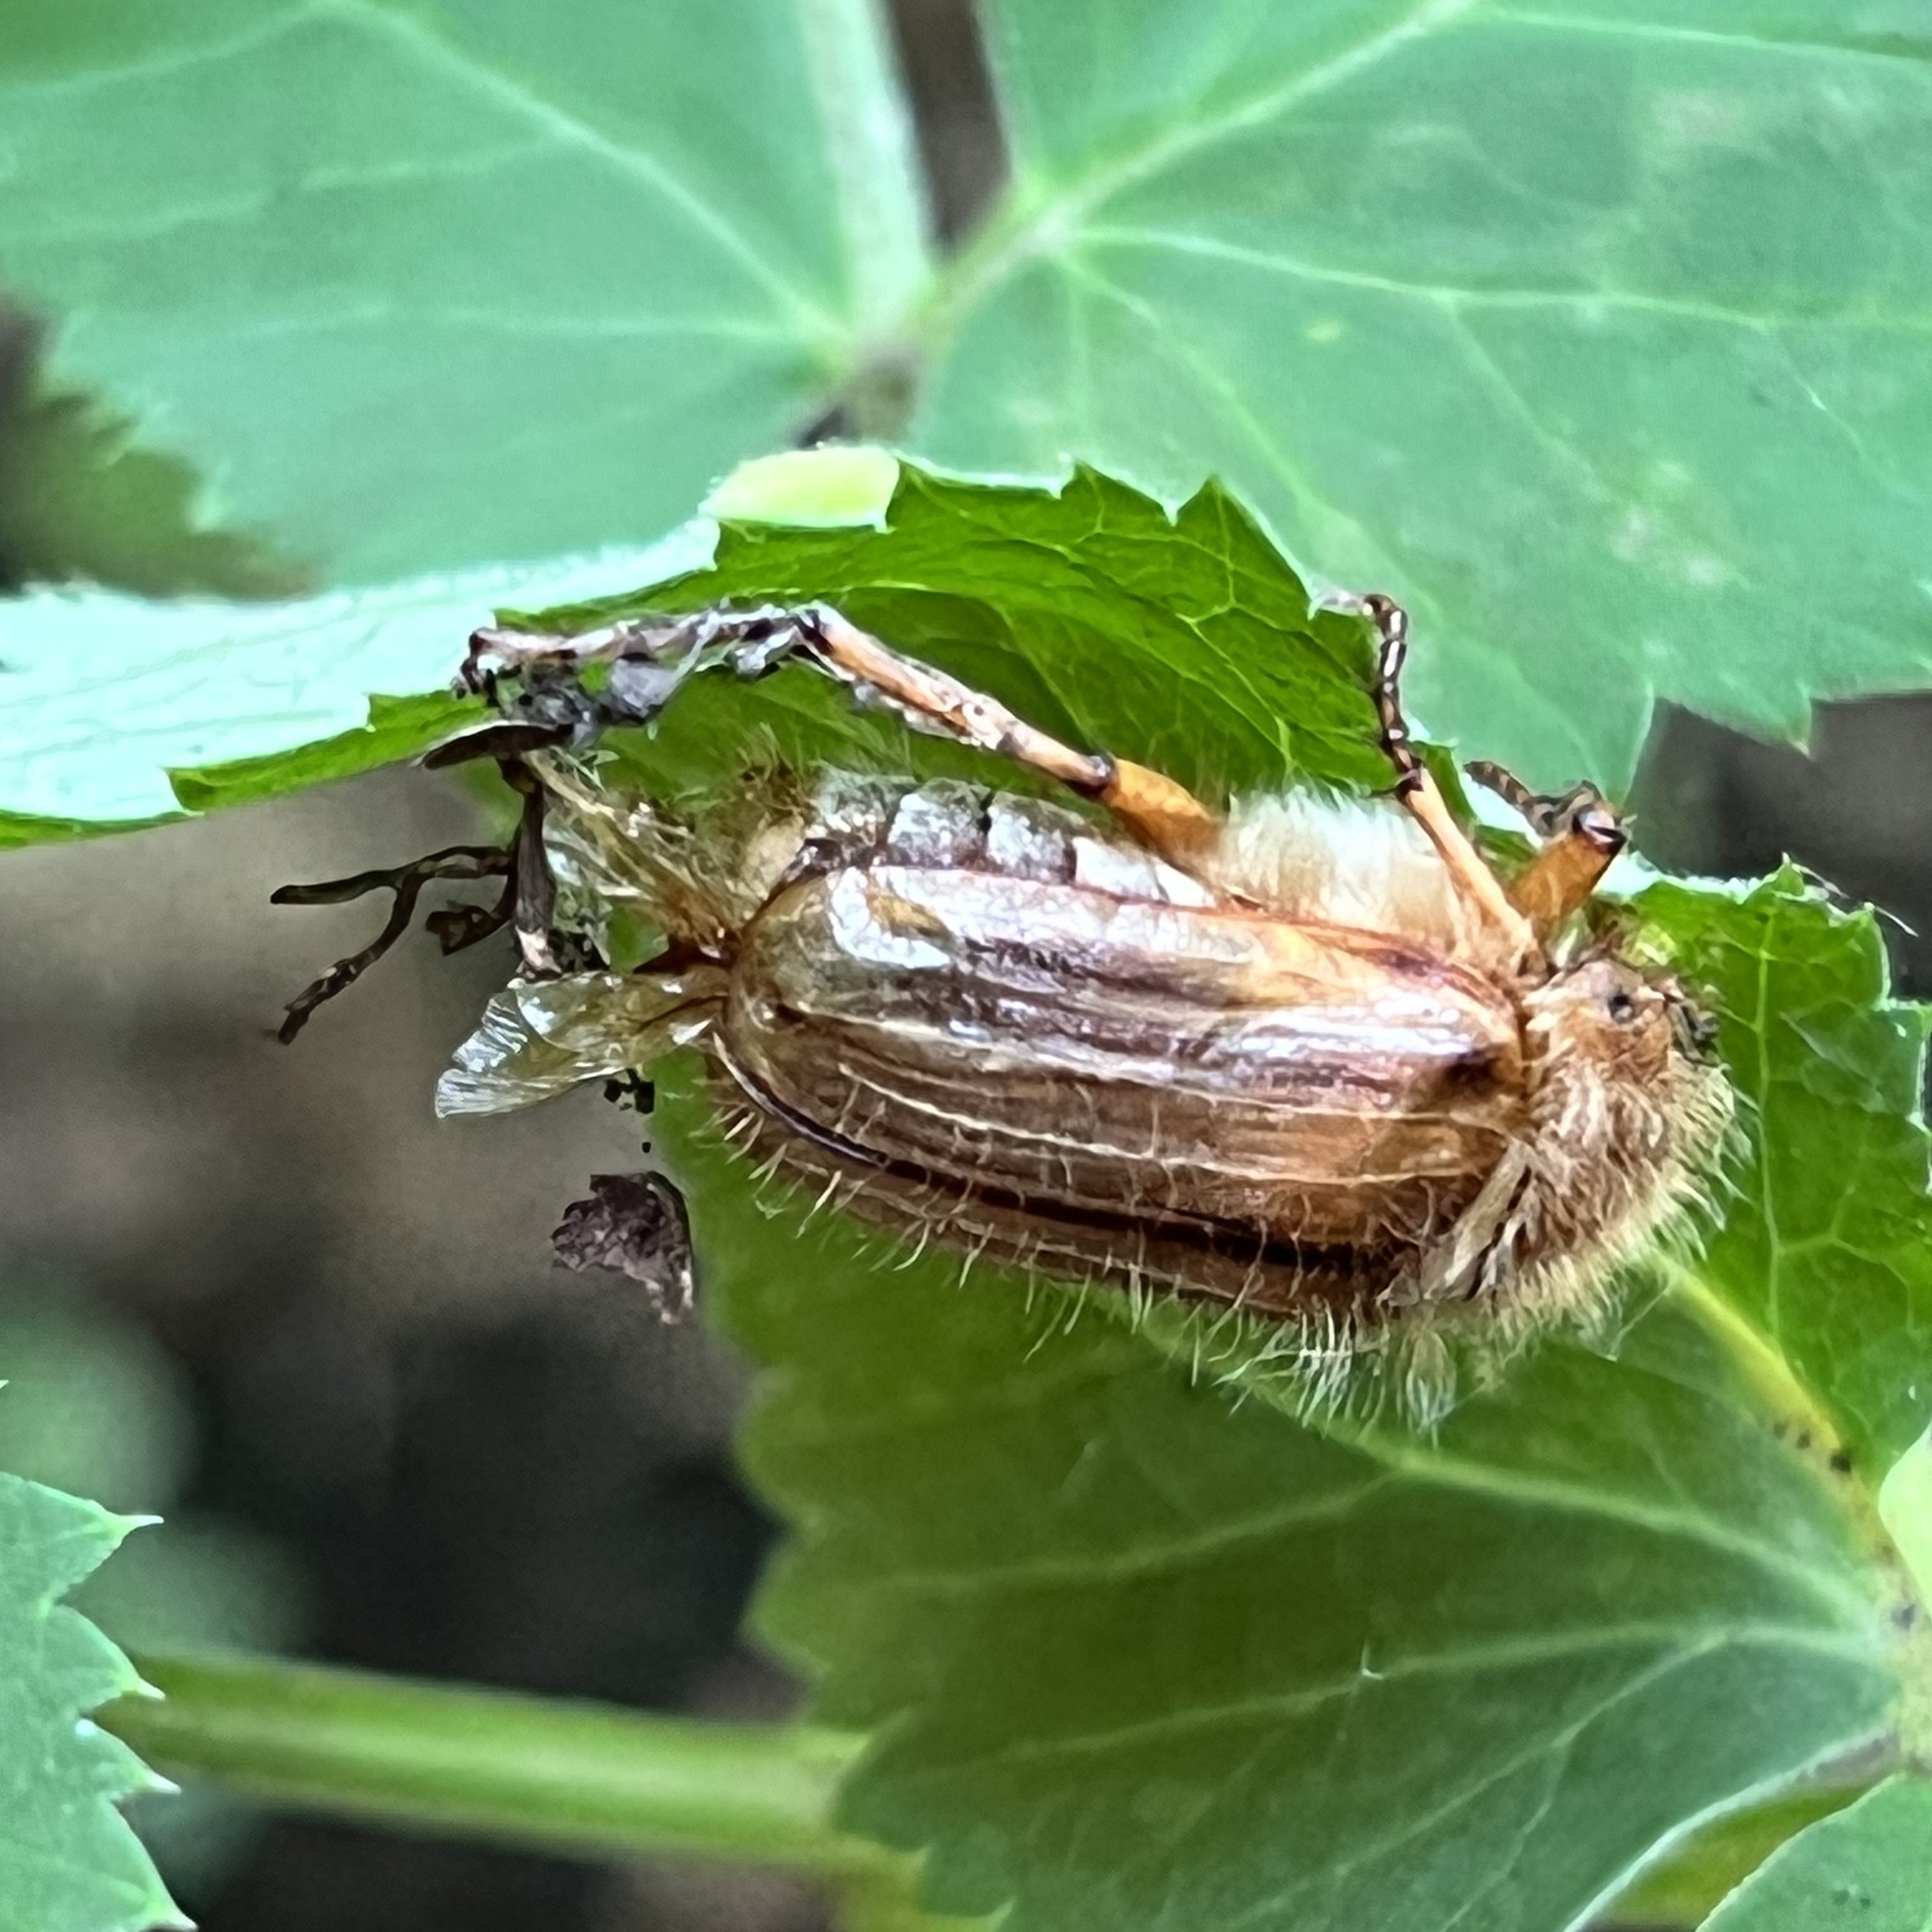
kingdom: Animalia
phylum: Arthropoda
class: Insecta
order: Coleoptera
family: Scarabaeidae
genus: Amphimallon
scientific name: Amphimallon solstitiale
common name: Summer chafer
